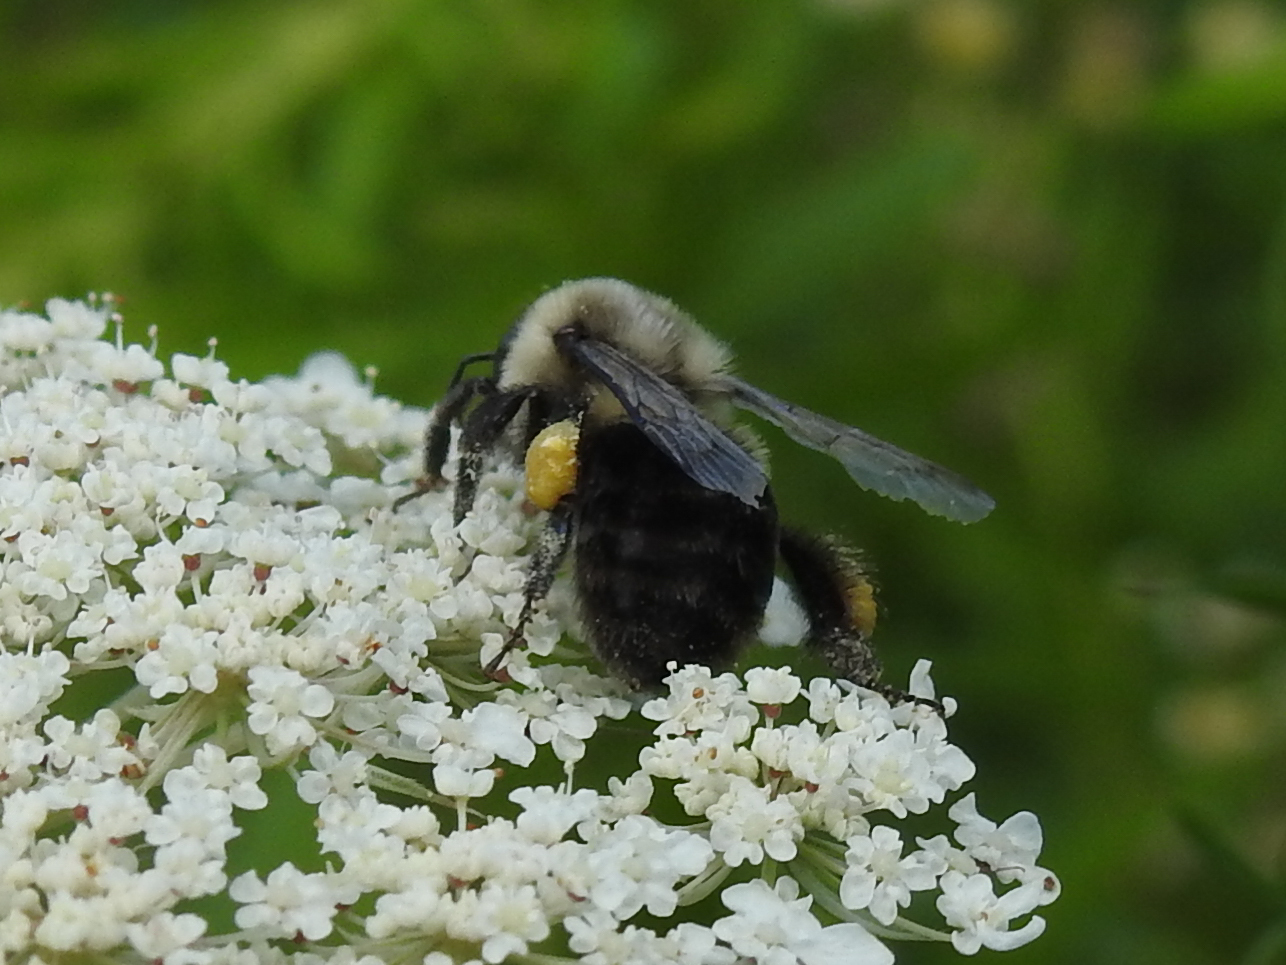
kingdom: Animalia
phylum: Arthropoda
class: Insecta
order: Hymenoptera
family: Apidae
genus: Bombus
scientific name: Bombus impatiens
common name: Common eastern bumble bee
